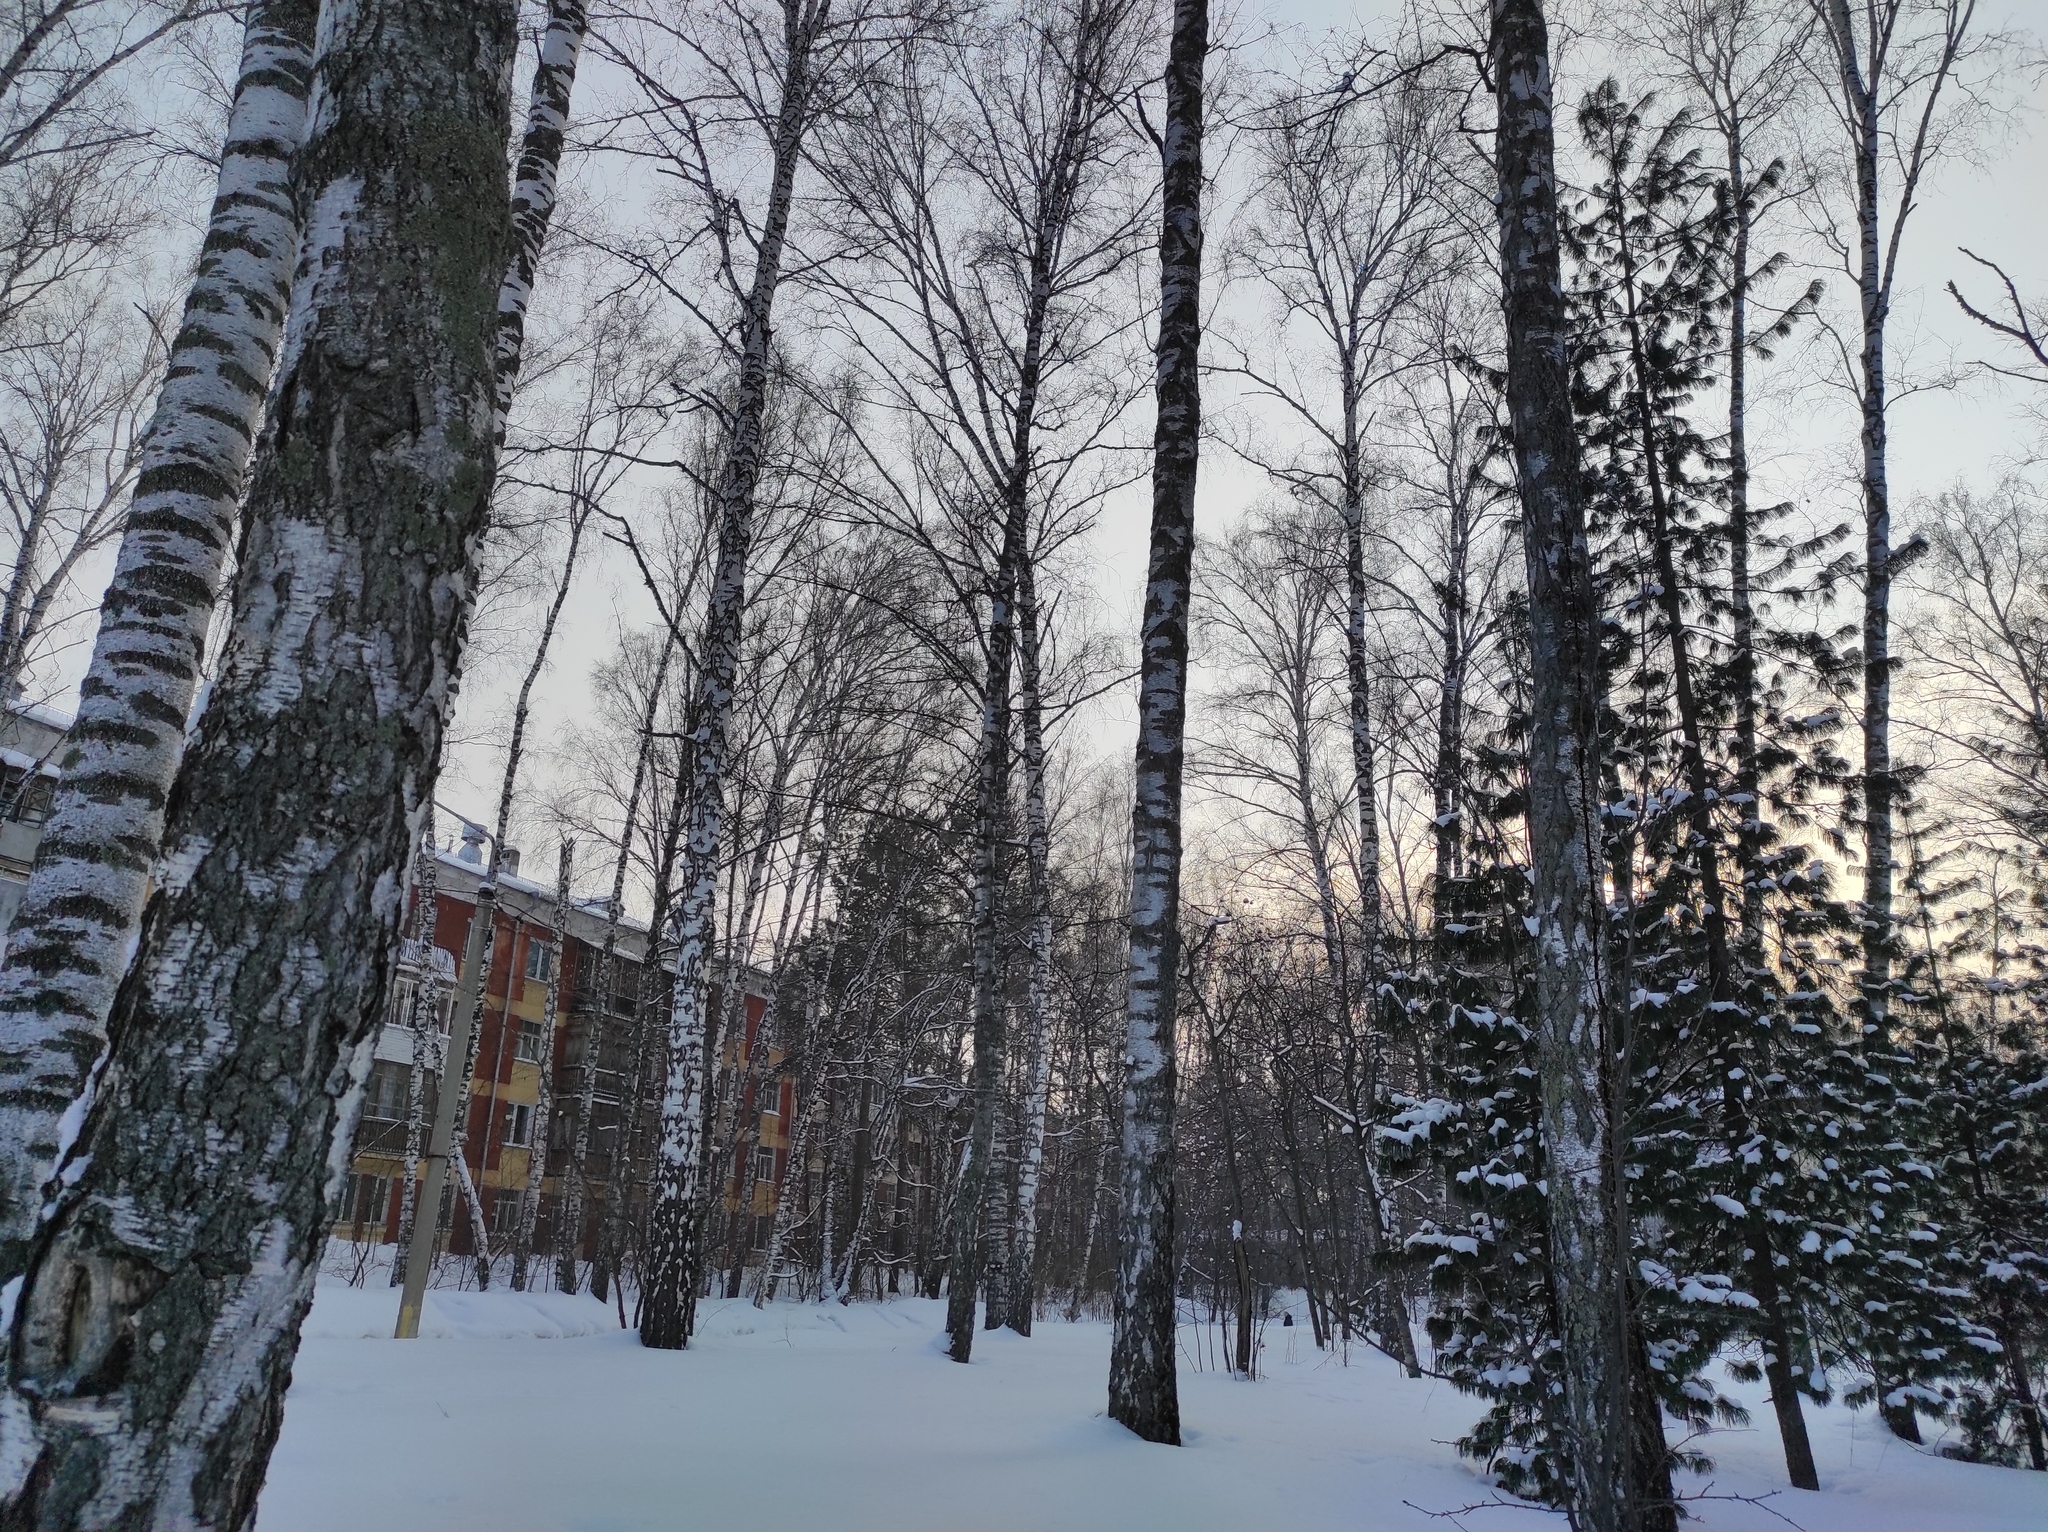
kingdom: Animalia
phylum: Chordata
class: Aves
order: Piciformes
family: Picidae
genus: Dendrocopos
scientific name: Dendrocopos leucotos
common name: White-backed woodpecker
